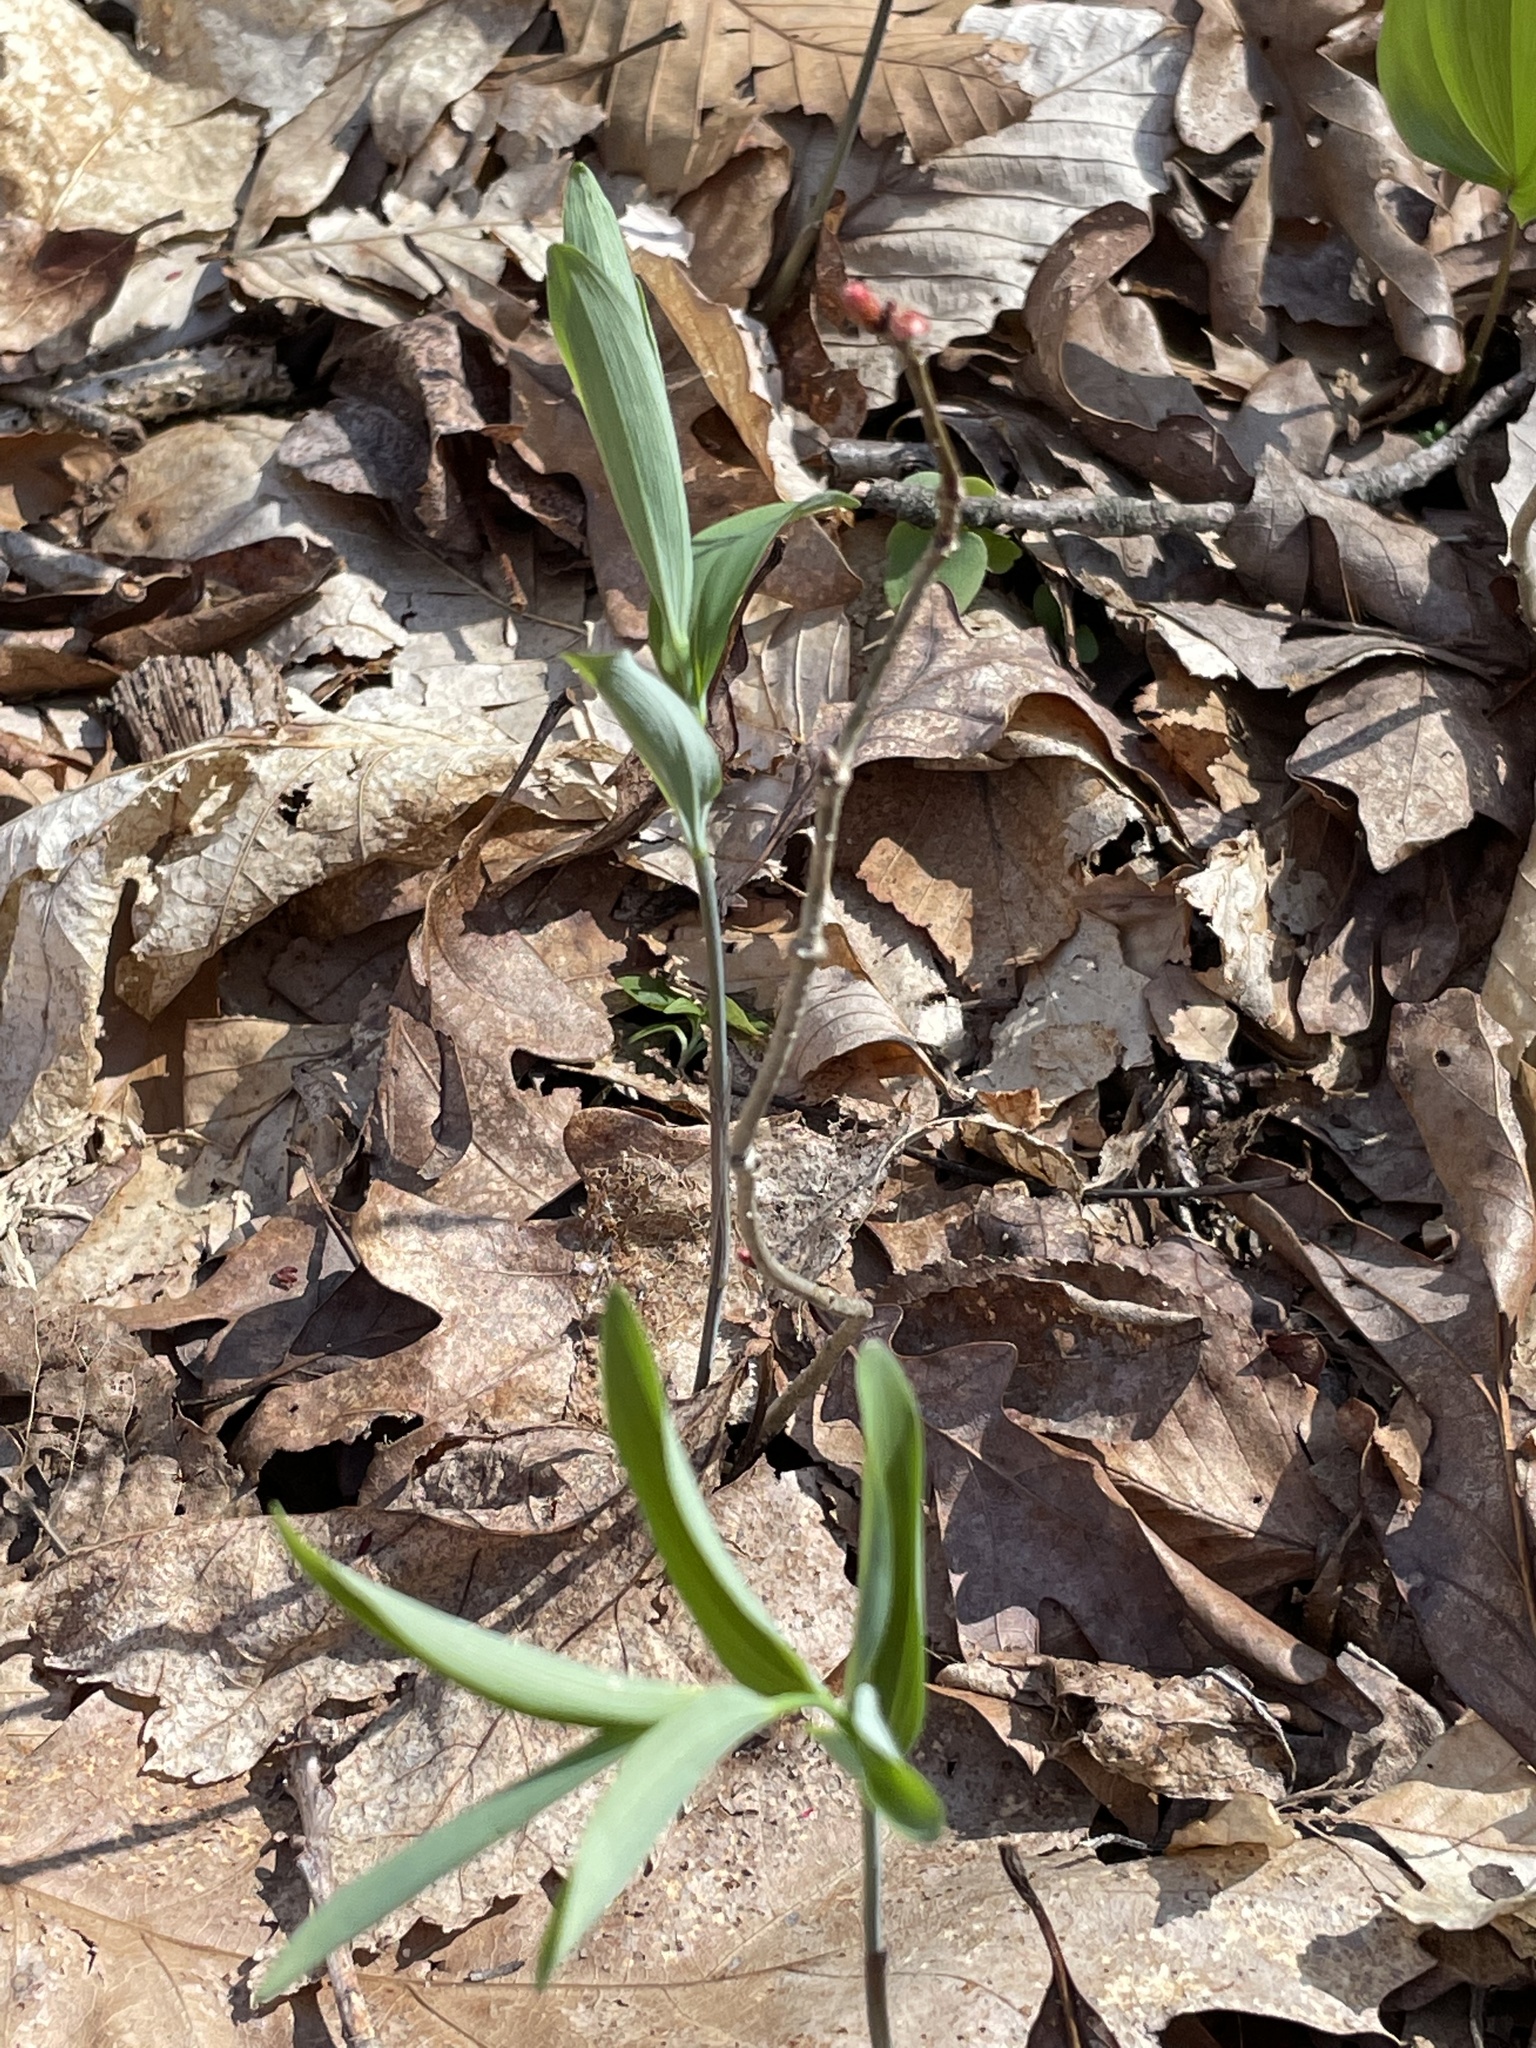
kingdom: Plantae
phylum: Tracheophyta
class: Liliopsida
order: Asparagales
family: Asparagaceae
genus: Polygonatum
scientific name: Polygonatum pubescens
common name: Downy solomon's seal
